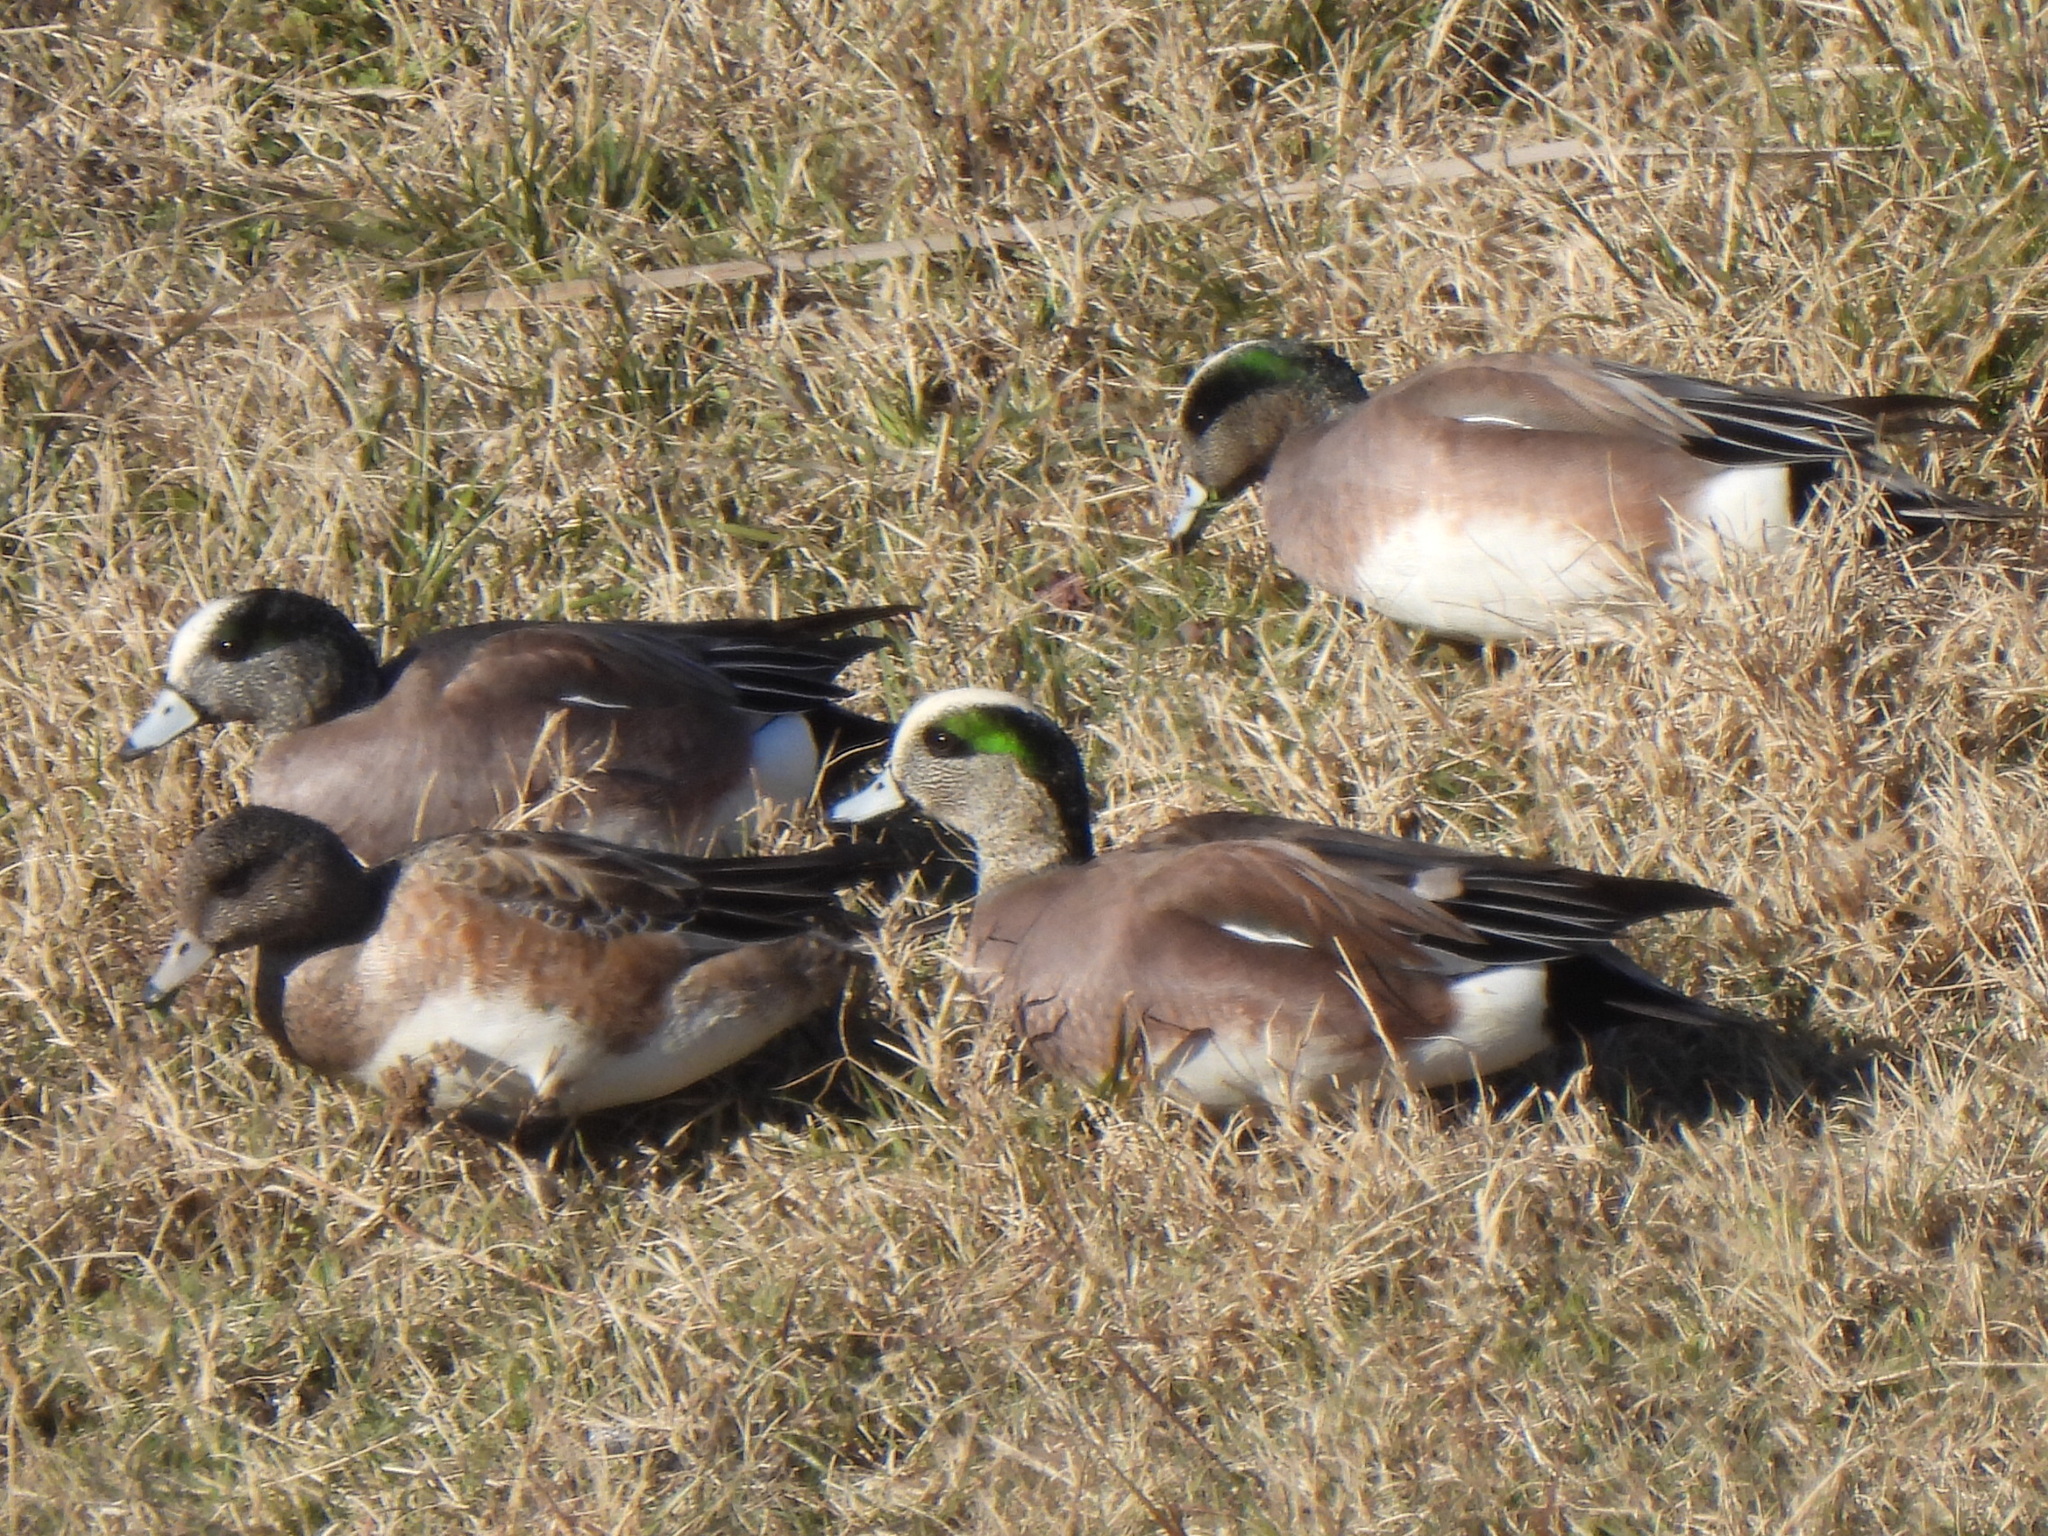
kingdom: Animalia
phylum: Chordata
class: Aves
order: Anseriformes
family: Anatidae
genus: Mareca
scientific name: Mareca americana
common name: American wigeon
